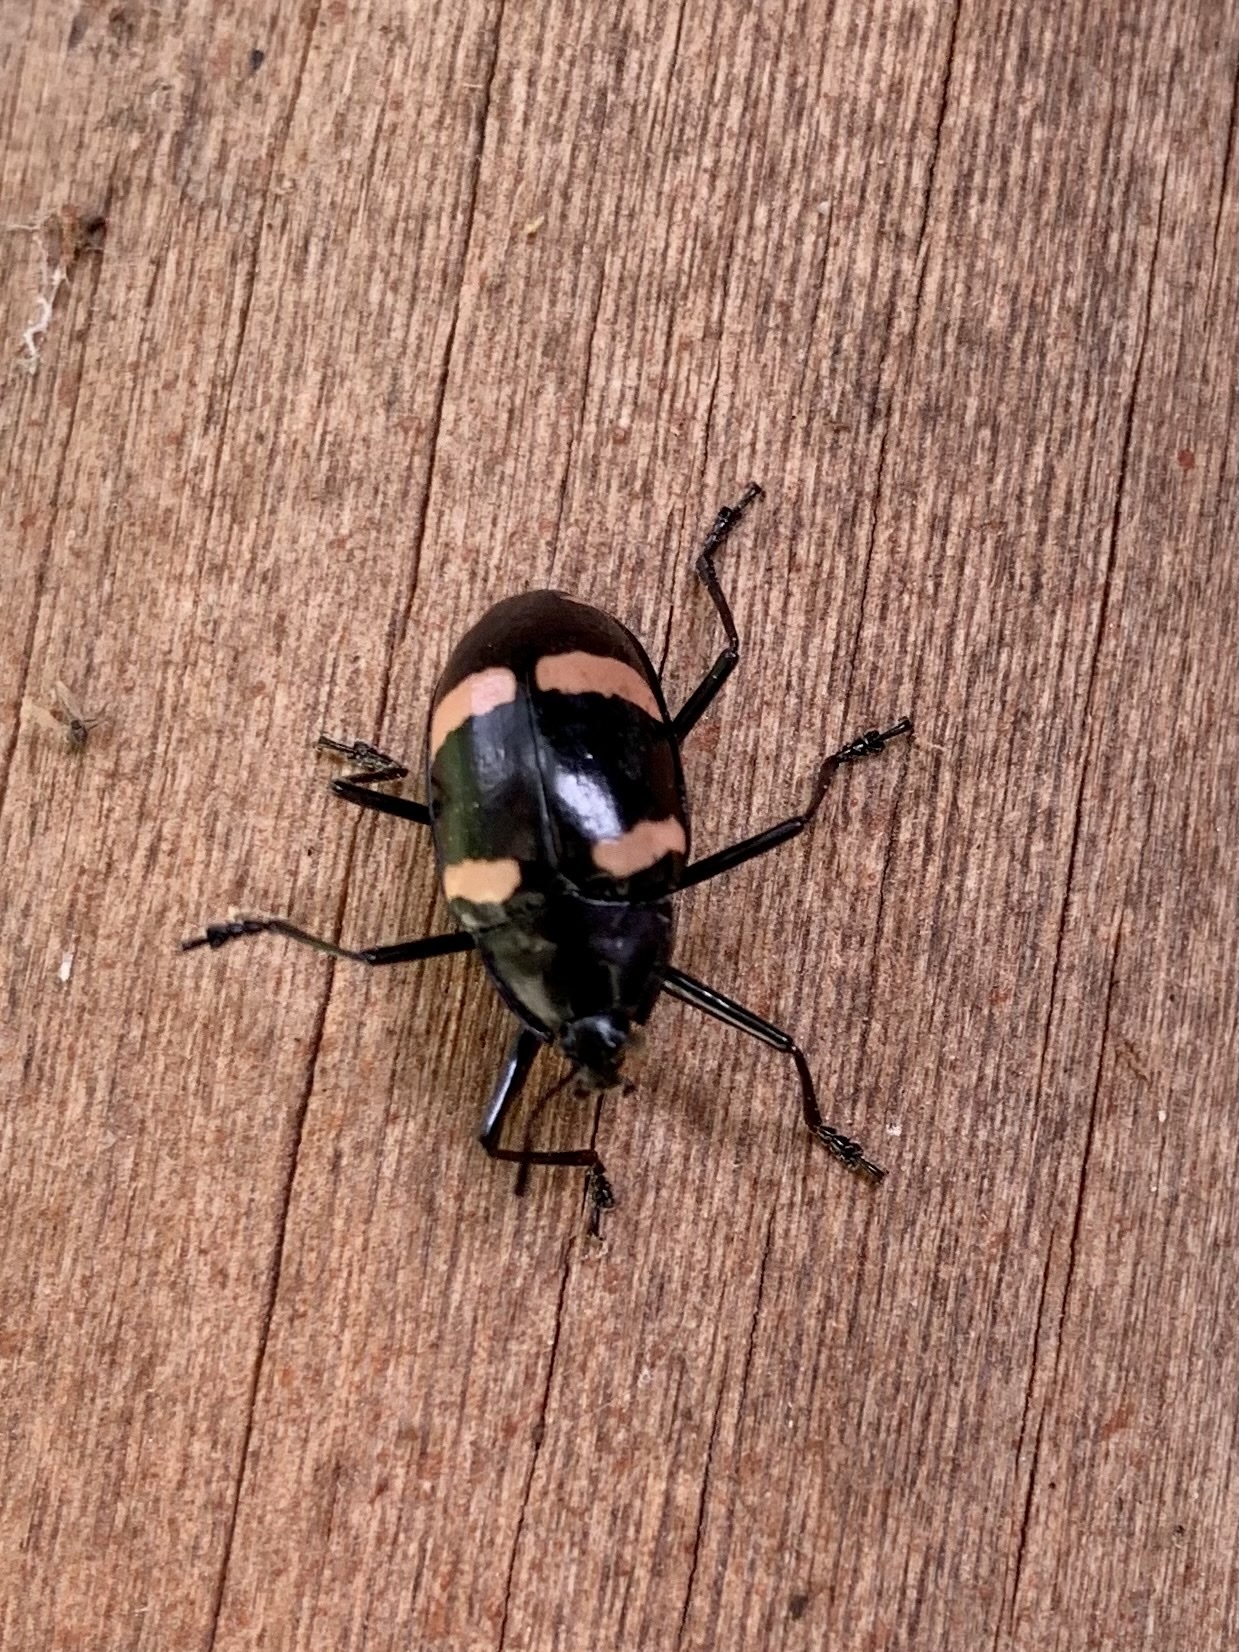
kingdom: Animalia
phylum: Arthropoda
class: Insecta
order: Coleoptera
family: Erotylidae
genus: Erotylus
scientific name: Erotylus
